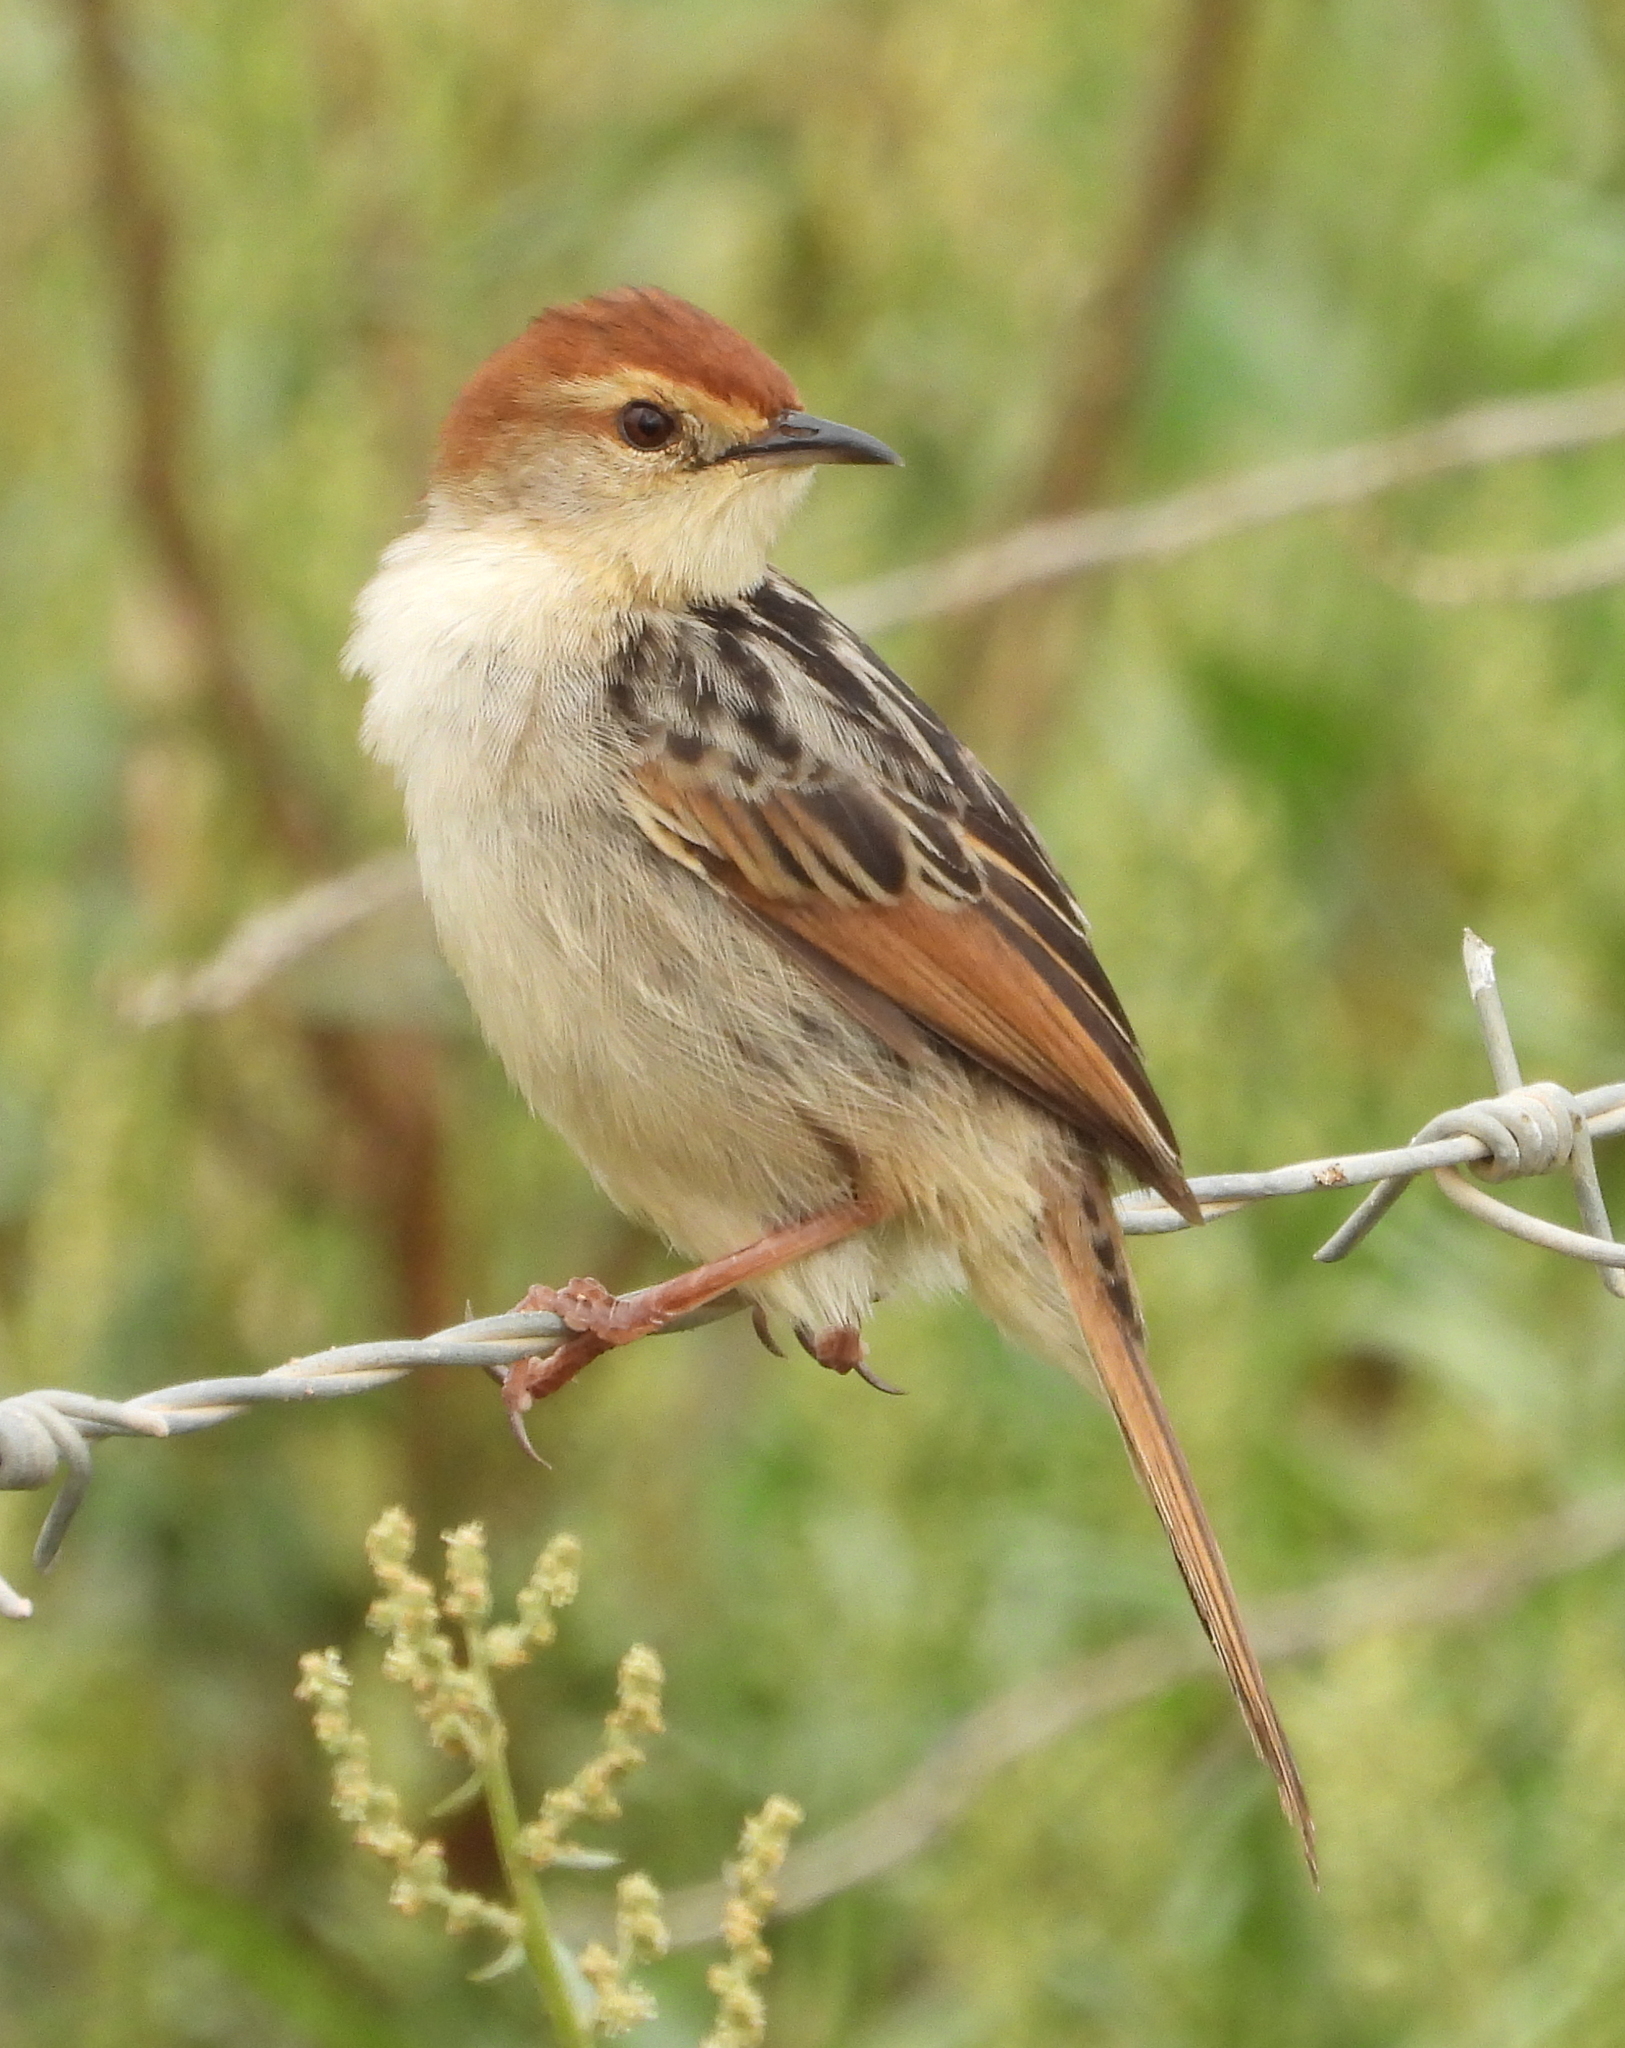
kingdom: Animalia
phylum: Chordata
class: Aves
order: Passeriformes
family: Cisticolidae
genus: Cisticola
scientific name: Cisticola tinniens
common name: Levaillant's cisticola
